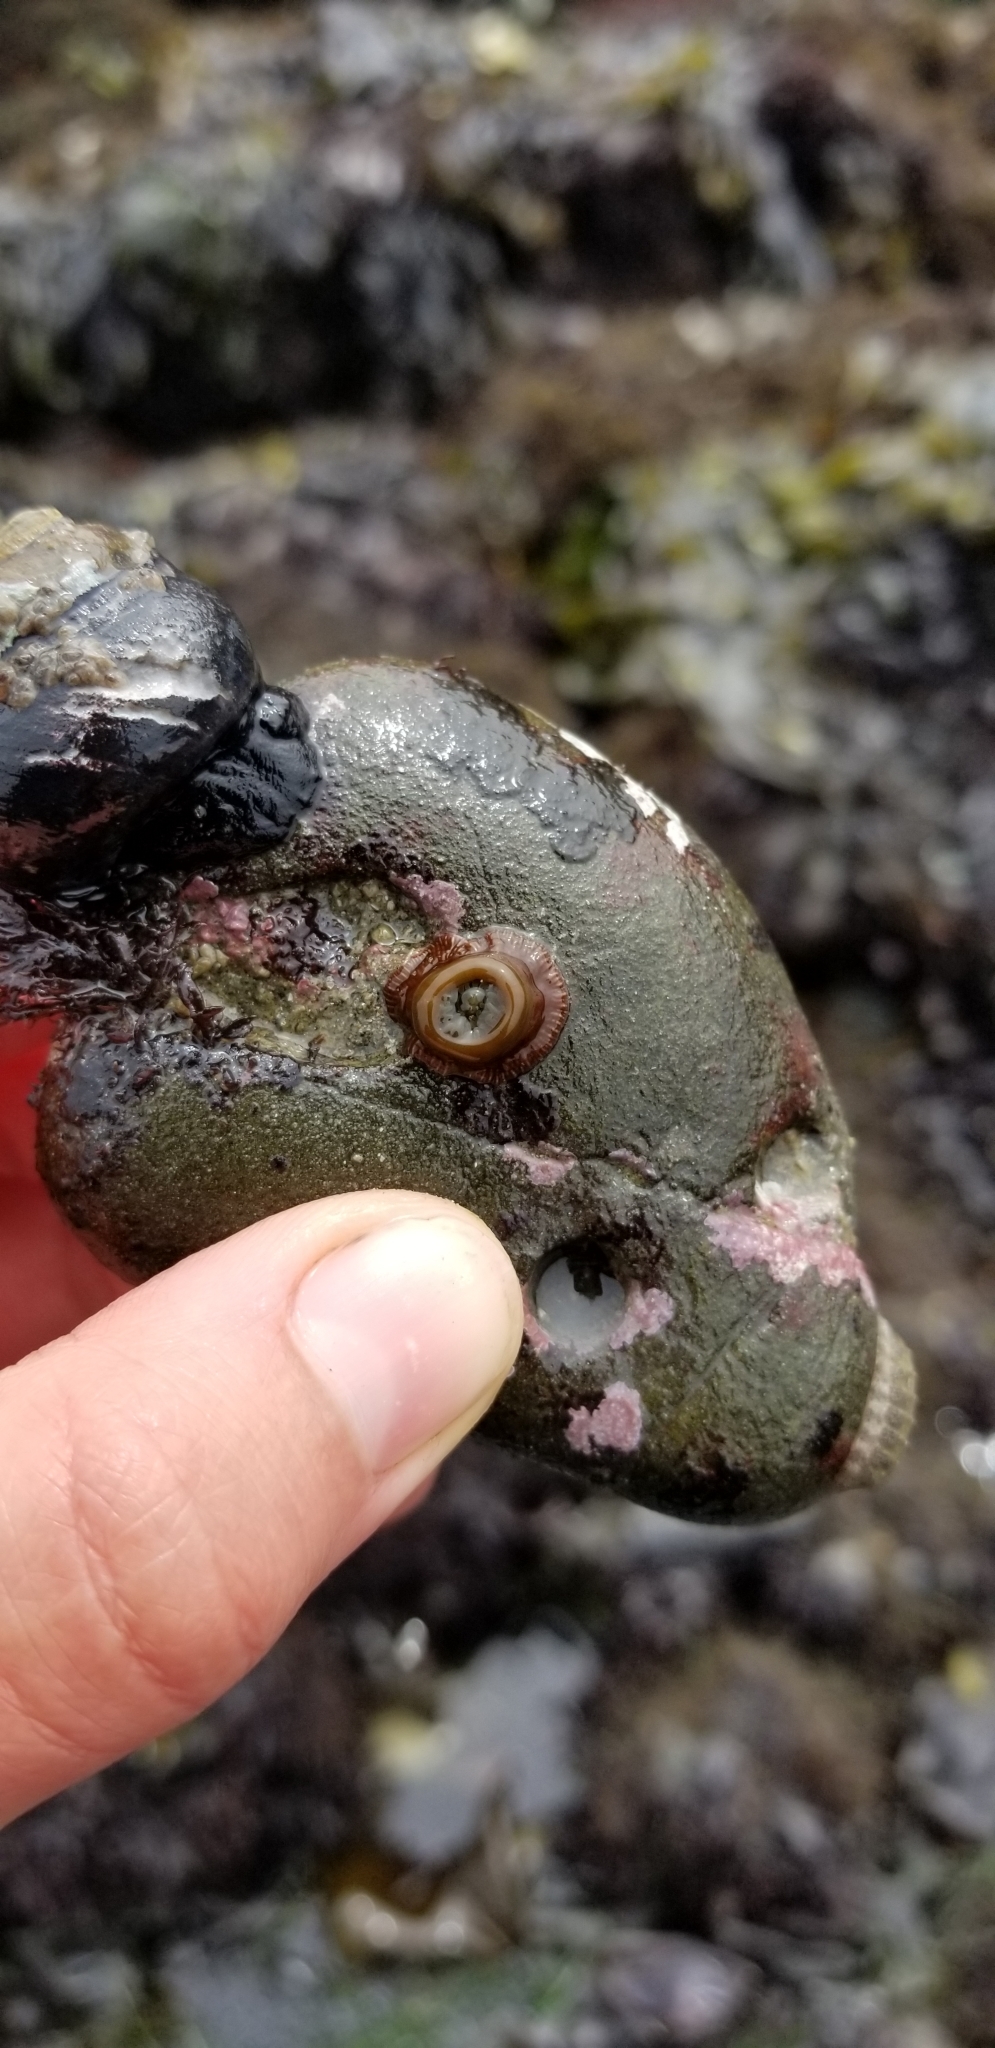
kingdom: Animalia
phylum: Cnidaria
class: Anthozoa
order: Actiniaria
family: Actiniidae
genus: Epiactis
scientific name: Epiactis prolifera
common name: Brooding anemone
